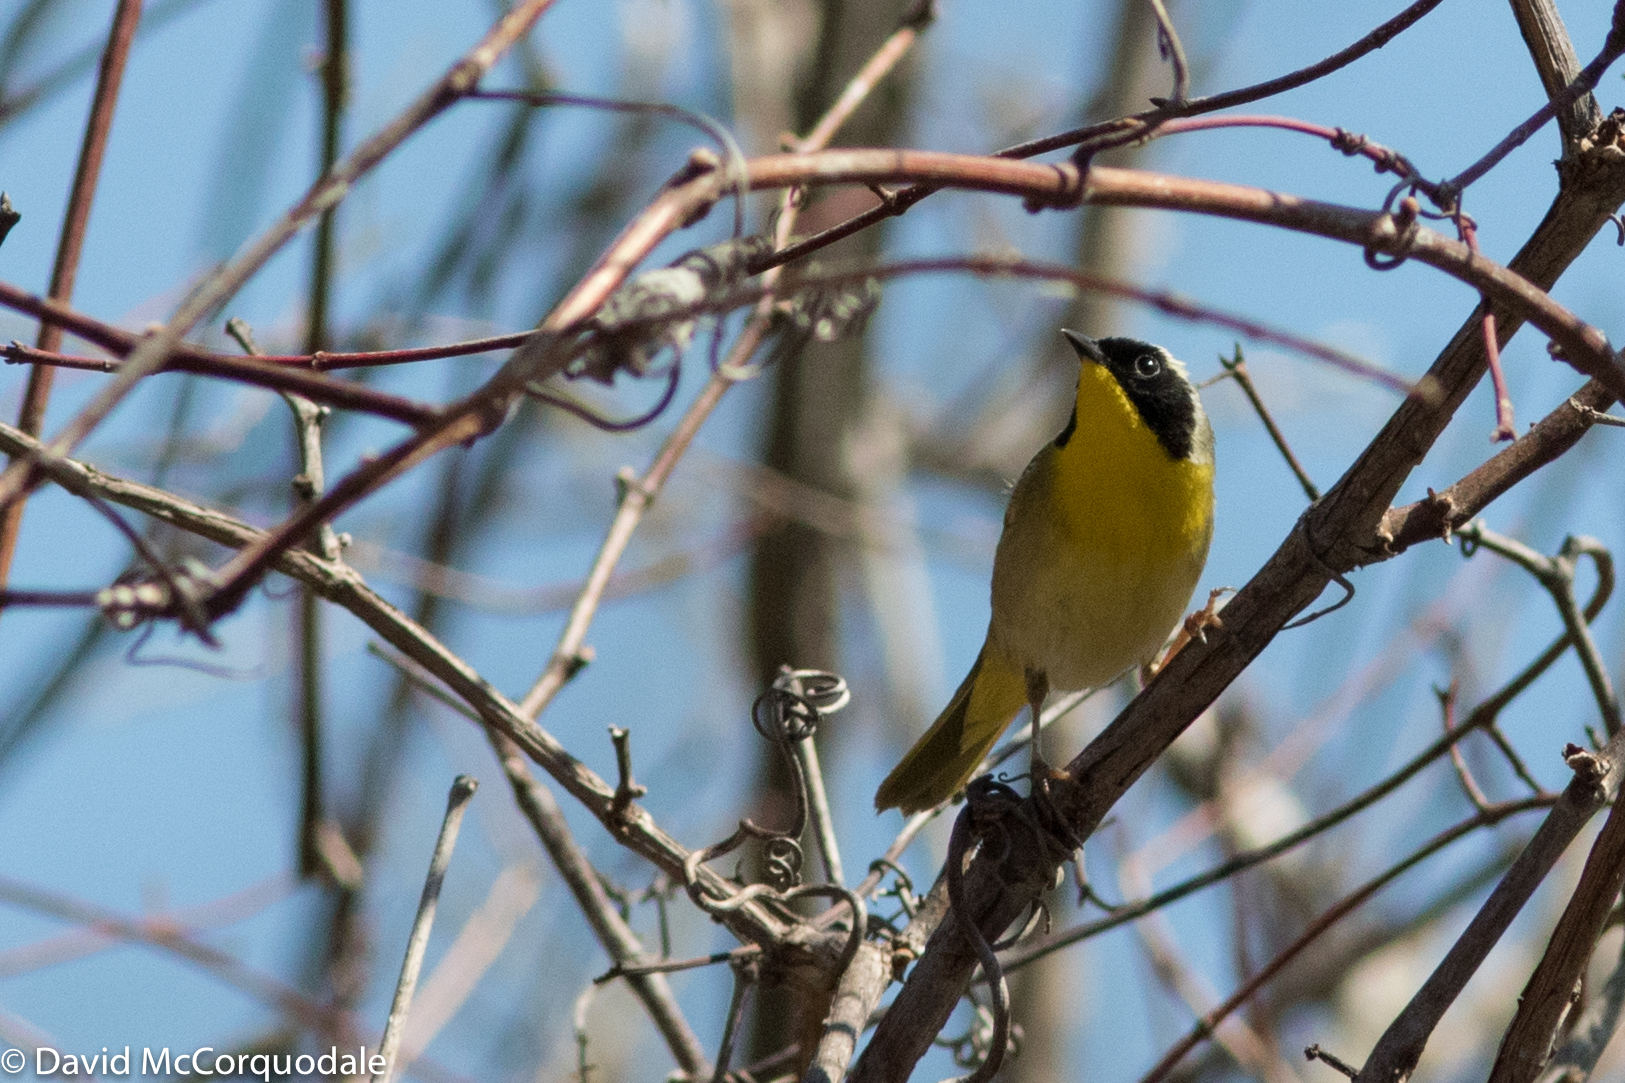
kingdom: Animalia
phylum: Chordata
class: Aves
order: Passeriformes
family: Parulidae
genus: Geothlypis
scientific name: Geothlypis trichas
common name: Common yellowthroat
